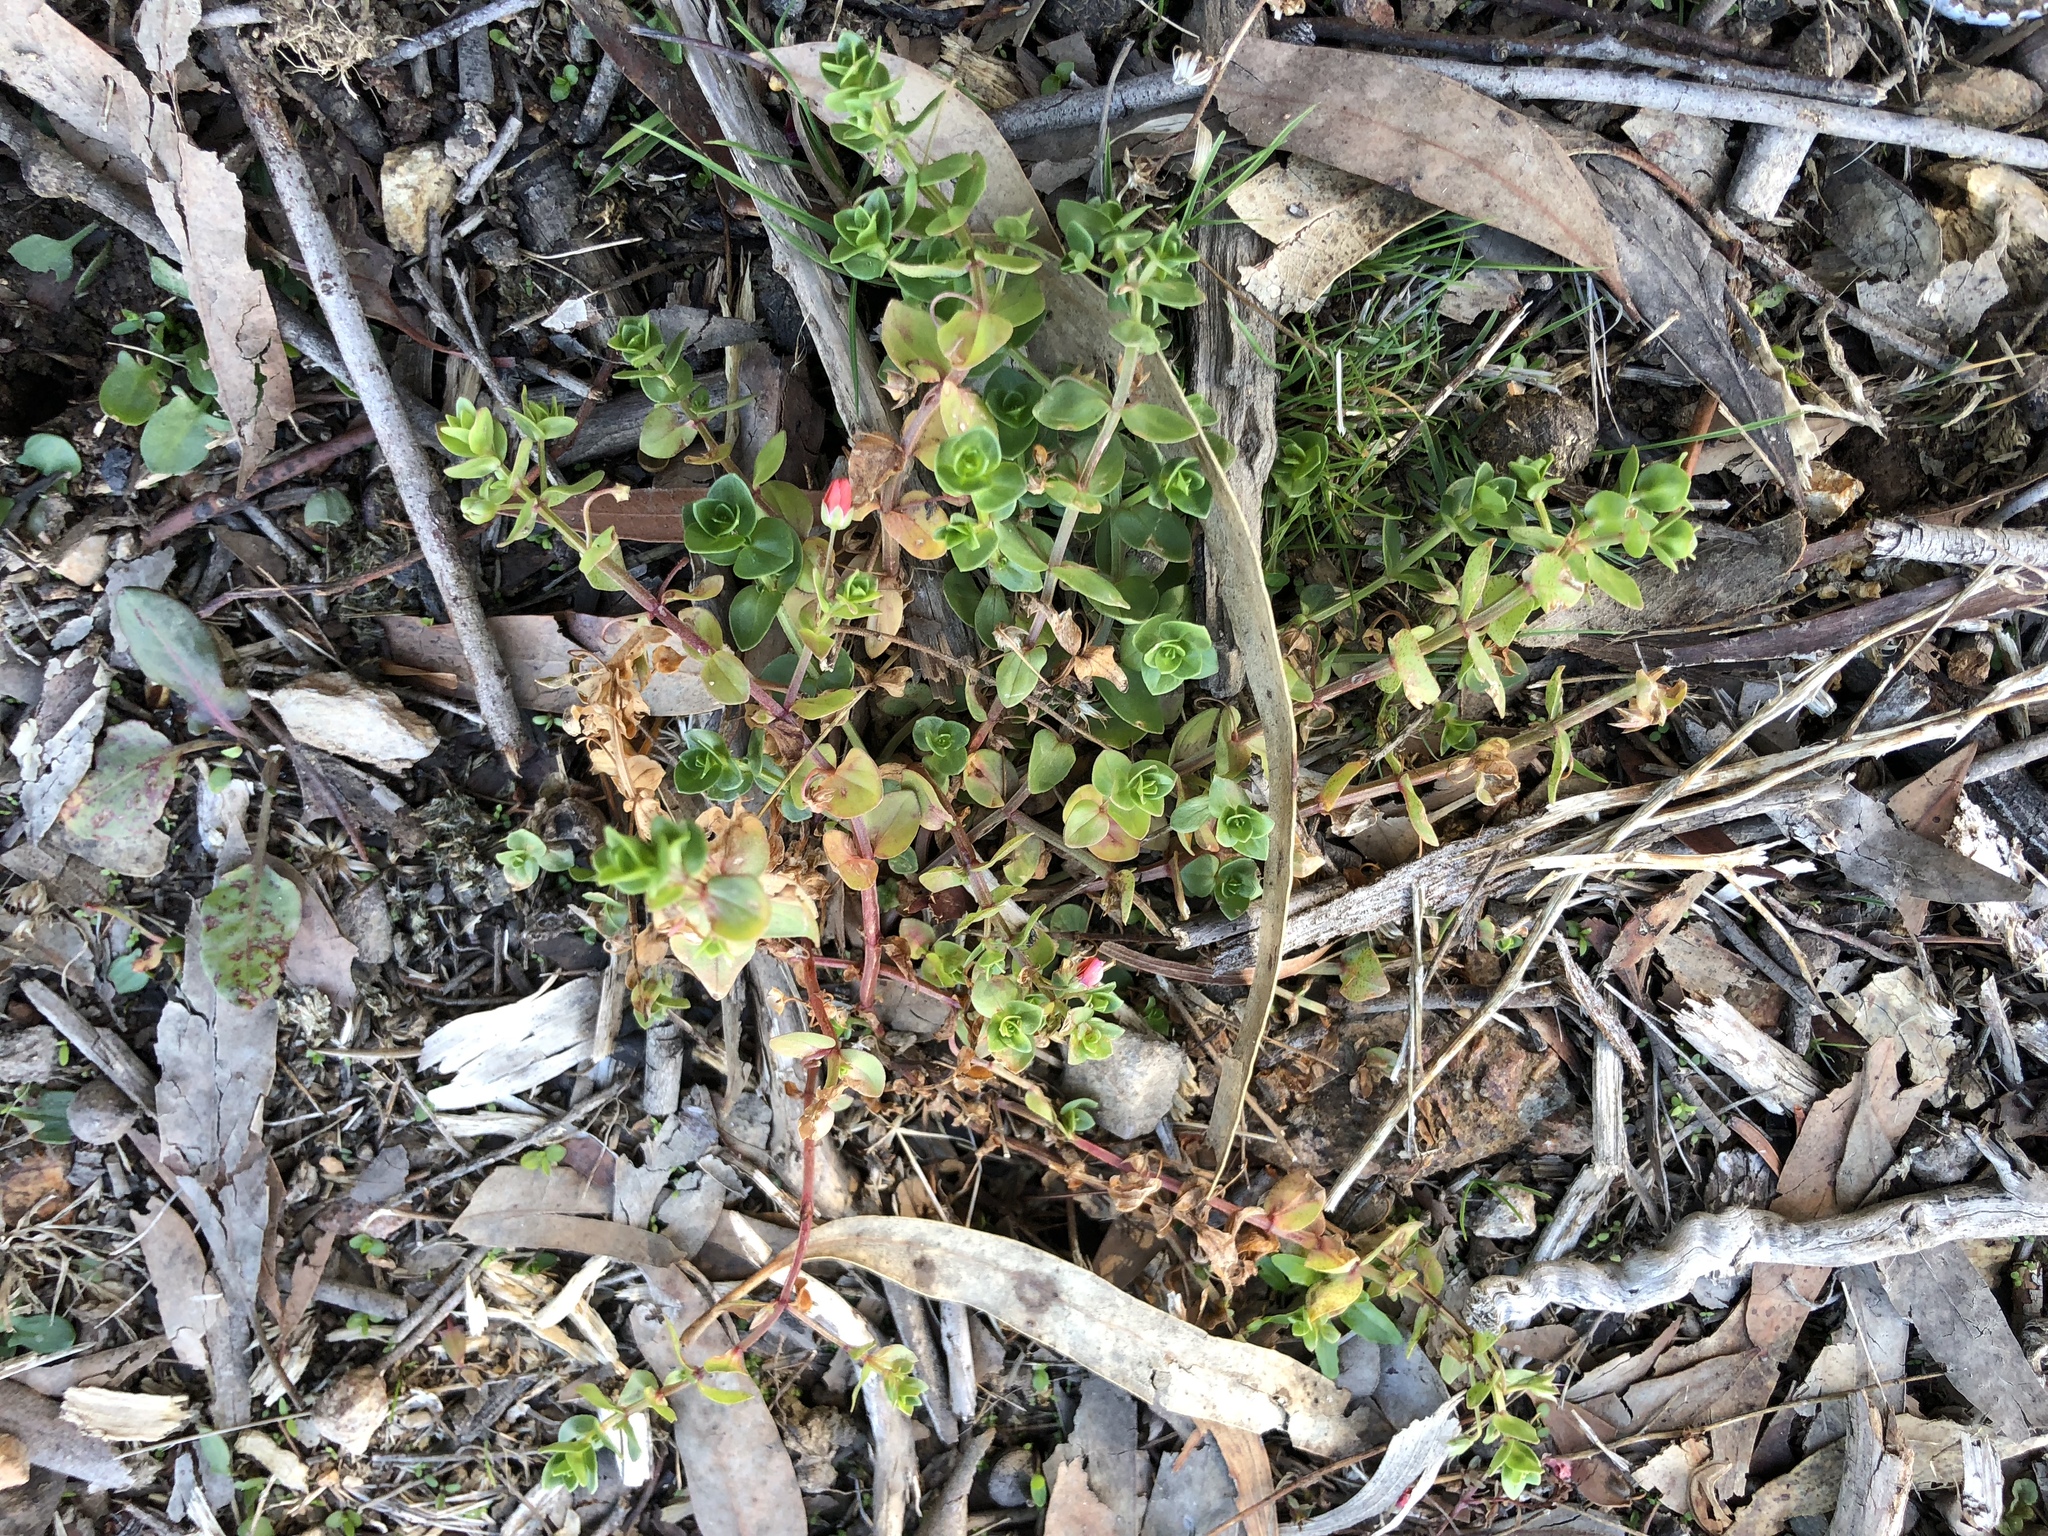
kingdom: Plantae
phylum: Tracheophyta
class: Magnoliopsida
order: Ericales
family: Primulaceae
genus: Lysimachia
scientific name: Lysimachia arvensis
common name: Scarlet pimpernel
